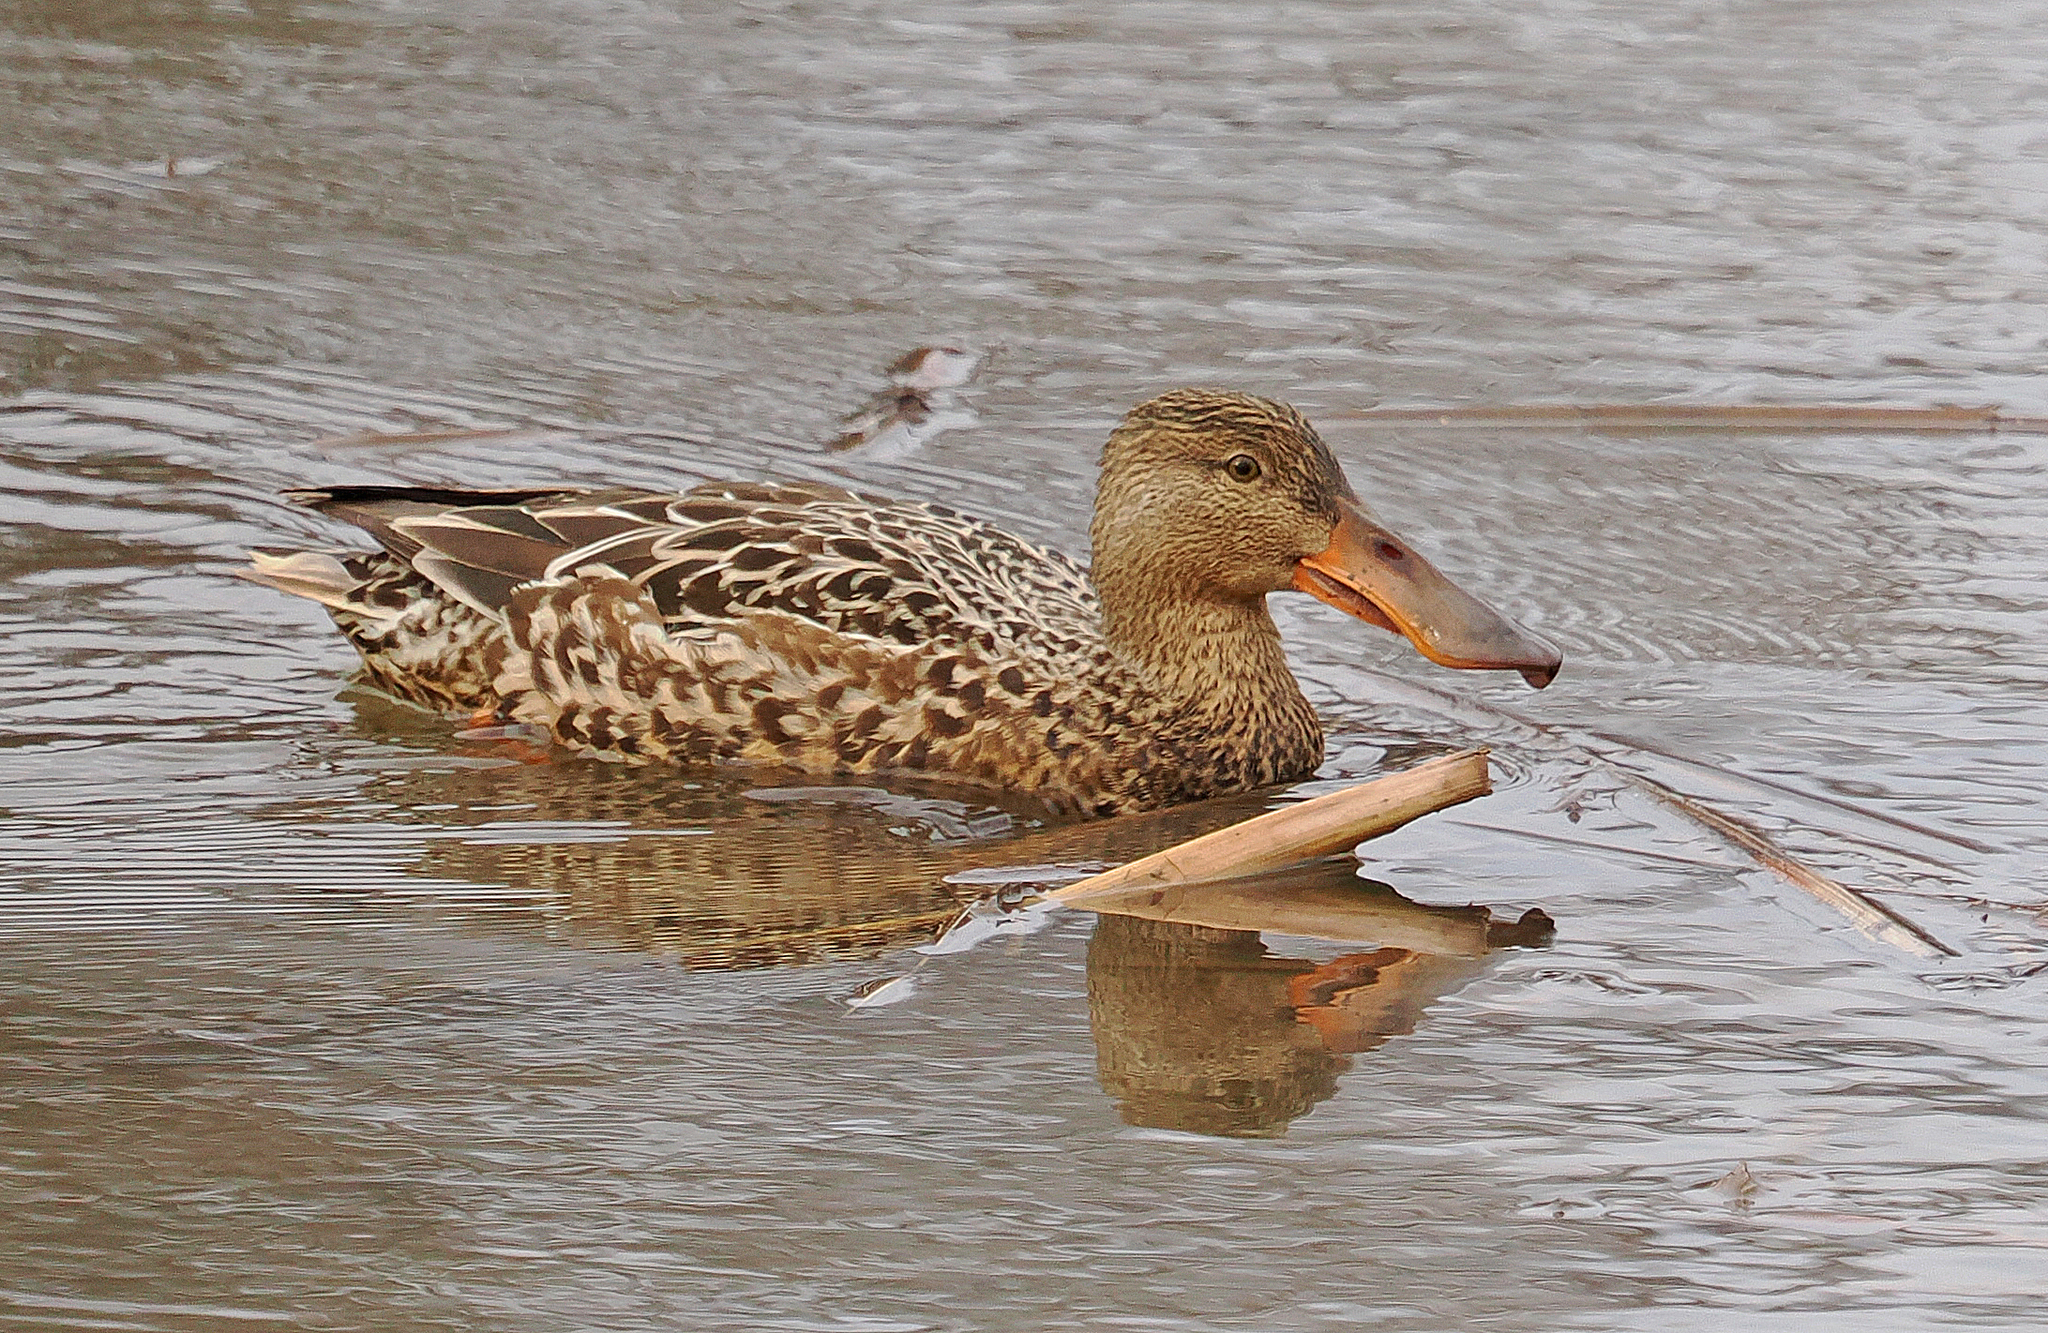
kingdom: Animalia
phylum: Chordata
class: Aves
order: Anseriformes
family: Anatidae
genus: Spatula
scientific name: Spatula clypeata
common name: Northern shoveler
